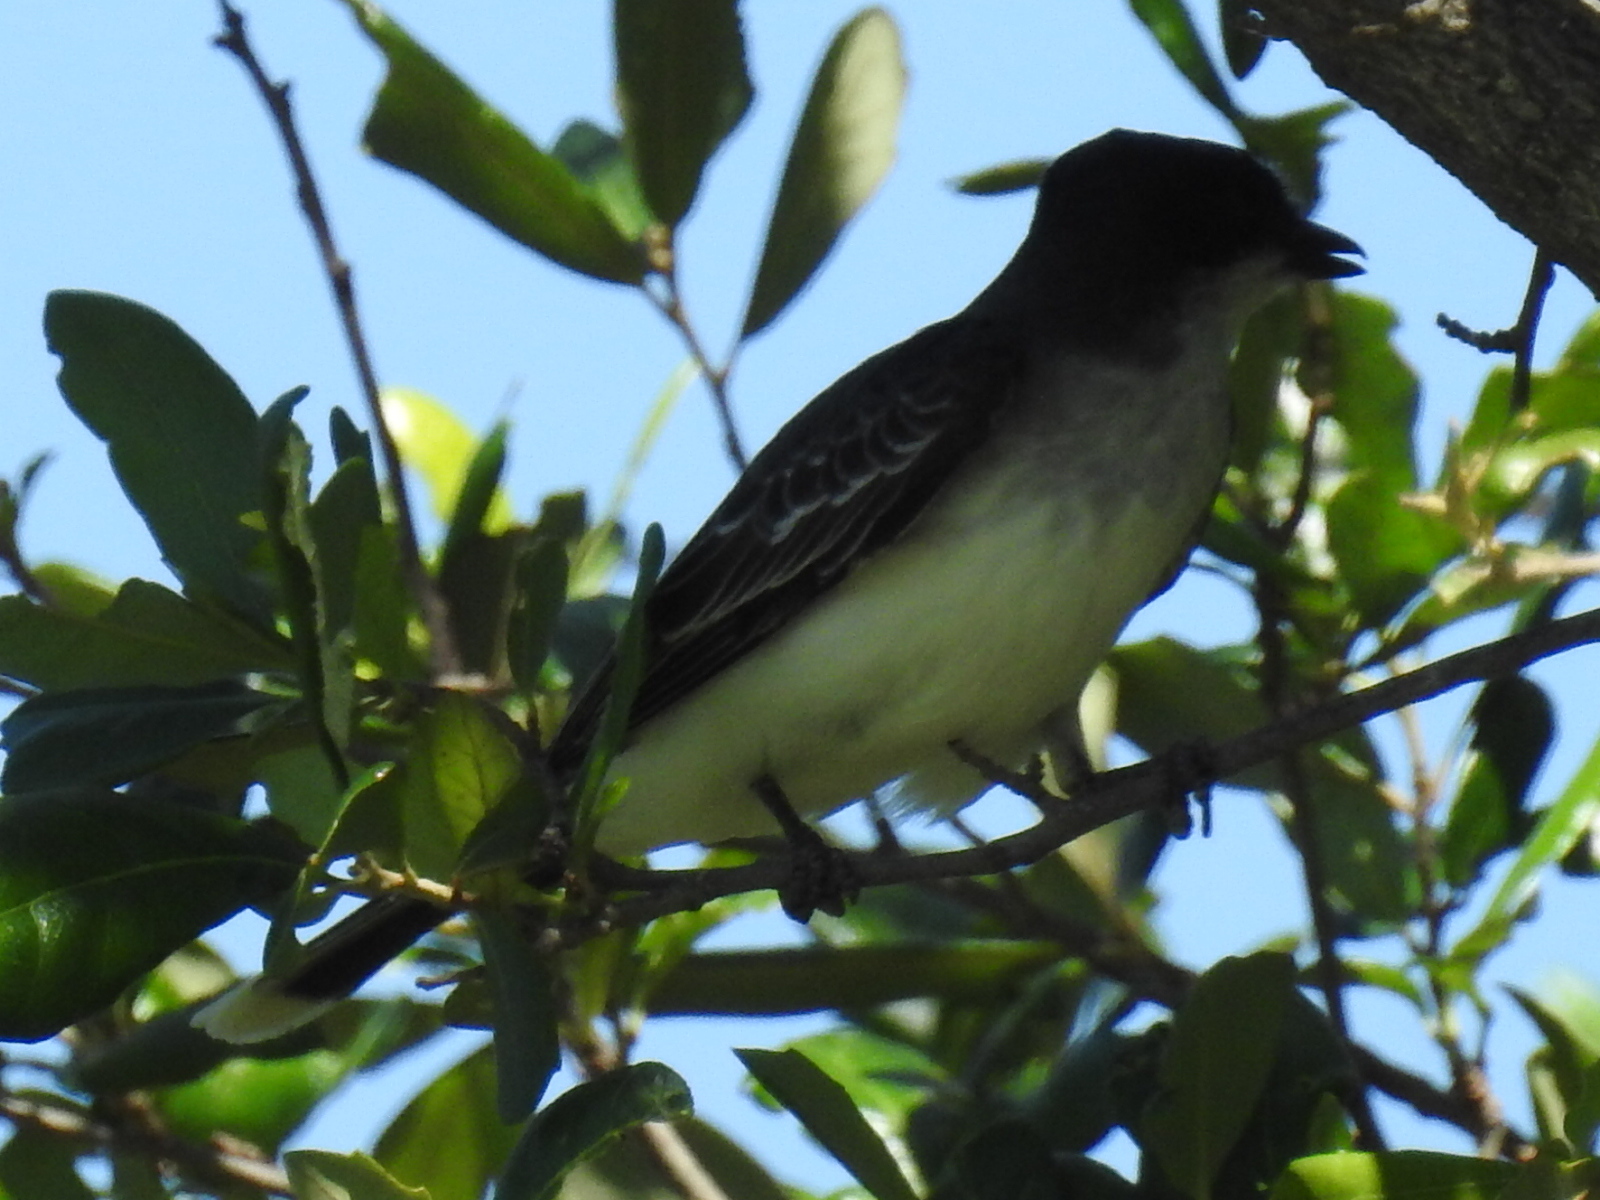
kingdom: Animalia
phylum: Chordata
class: Aves
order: Passeriformes
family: Tyrannidae
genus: Tyrannus
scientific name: Tyrannus tyrannus
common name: Eastern kingbird
